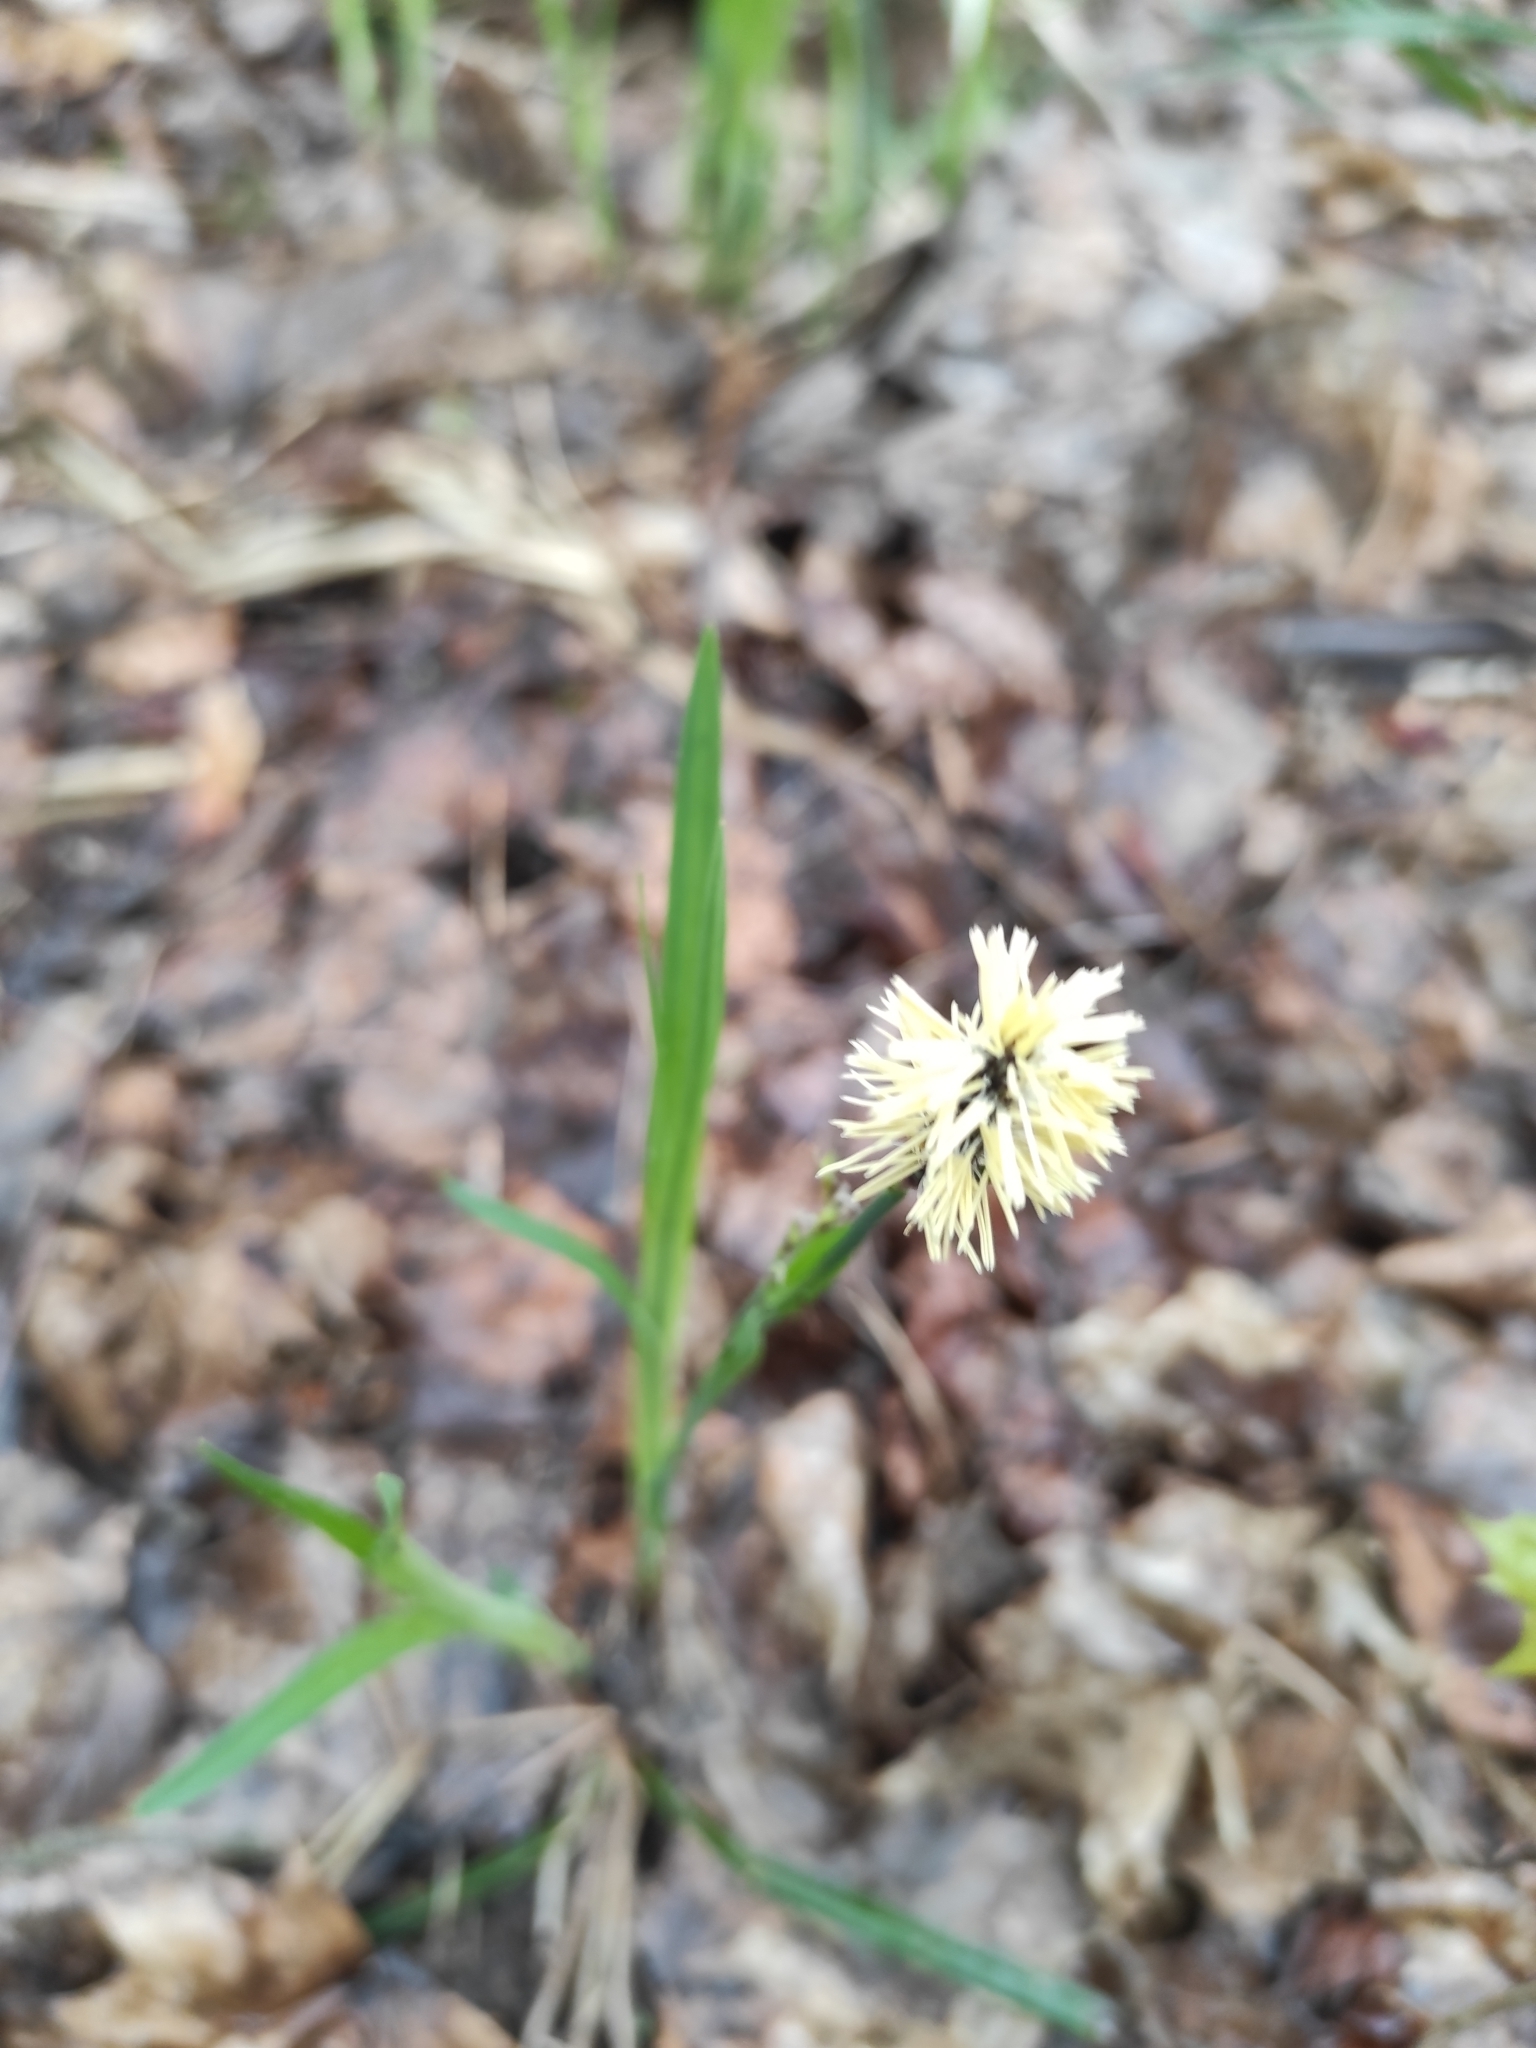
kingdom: Plantae
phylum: Tracheophyta
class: Liliopsida
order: Poales
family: Cyperaceae
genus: Carex
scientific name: Carex pilosa
